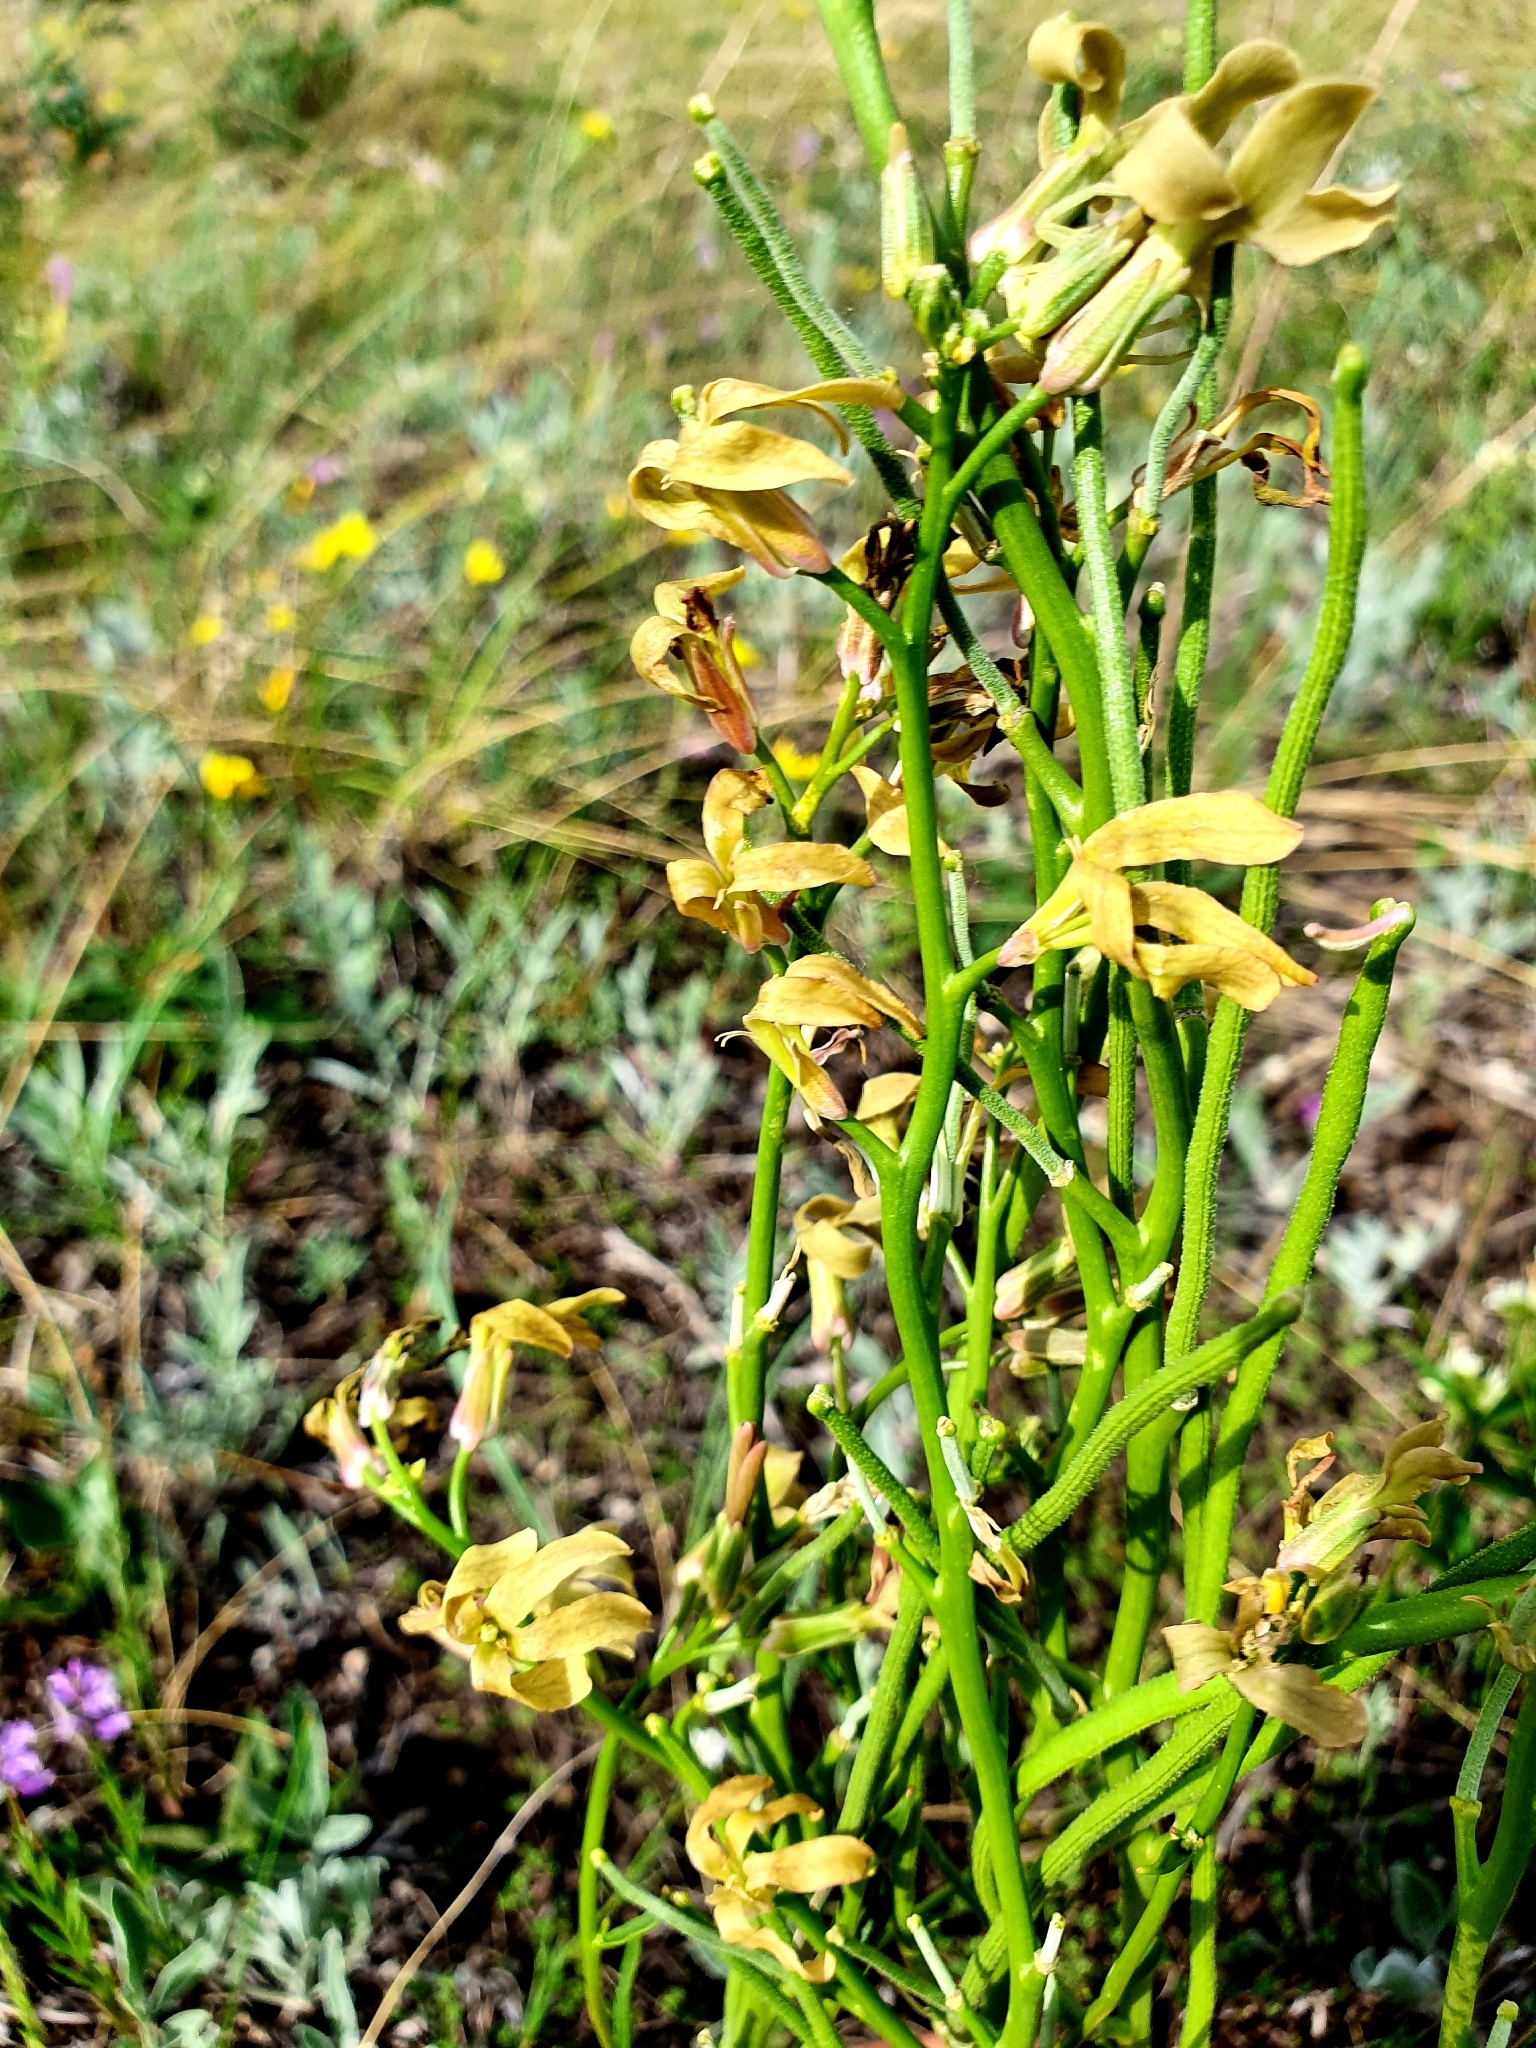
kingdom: Plantae
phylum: Tracheophyta
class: Magnoliopsida
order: Brassicales
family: Brassicaceae
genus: Matthiola
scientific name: Matthiola fragrans
